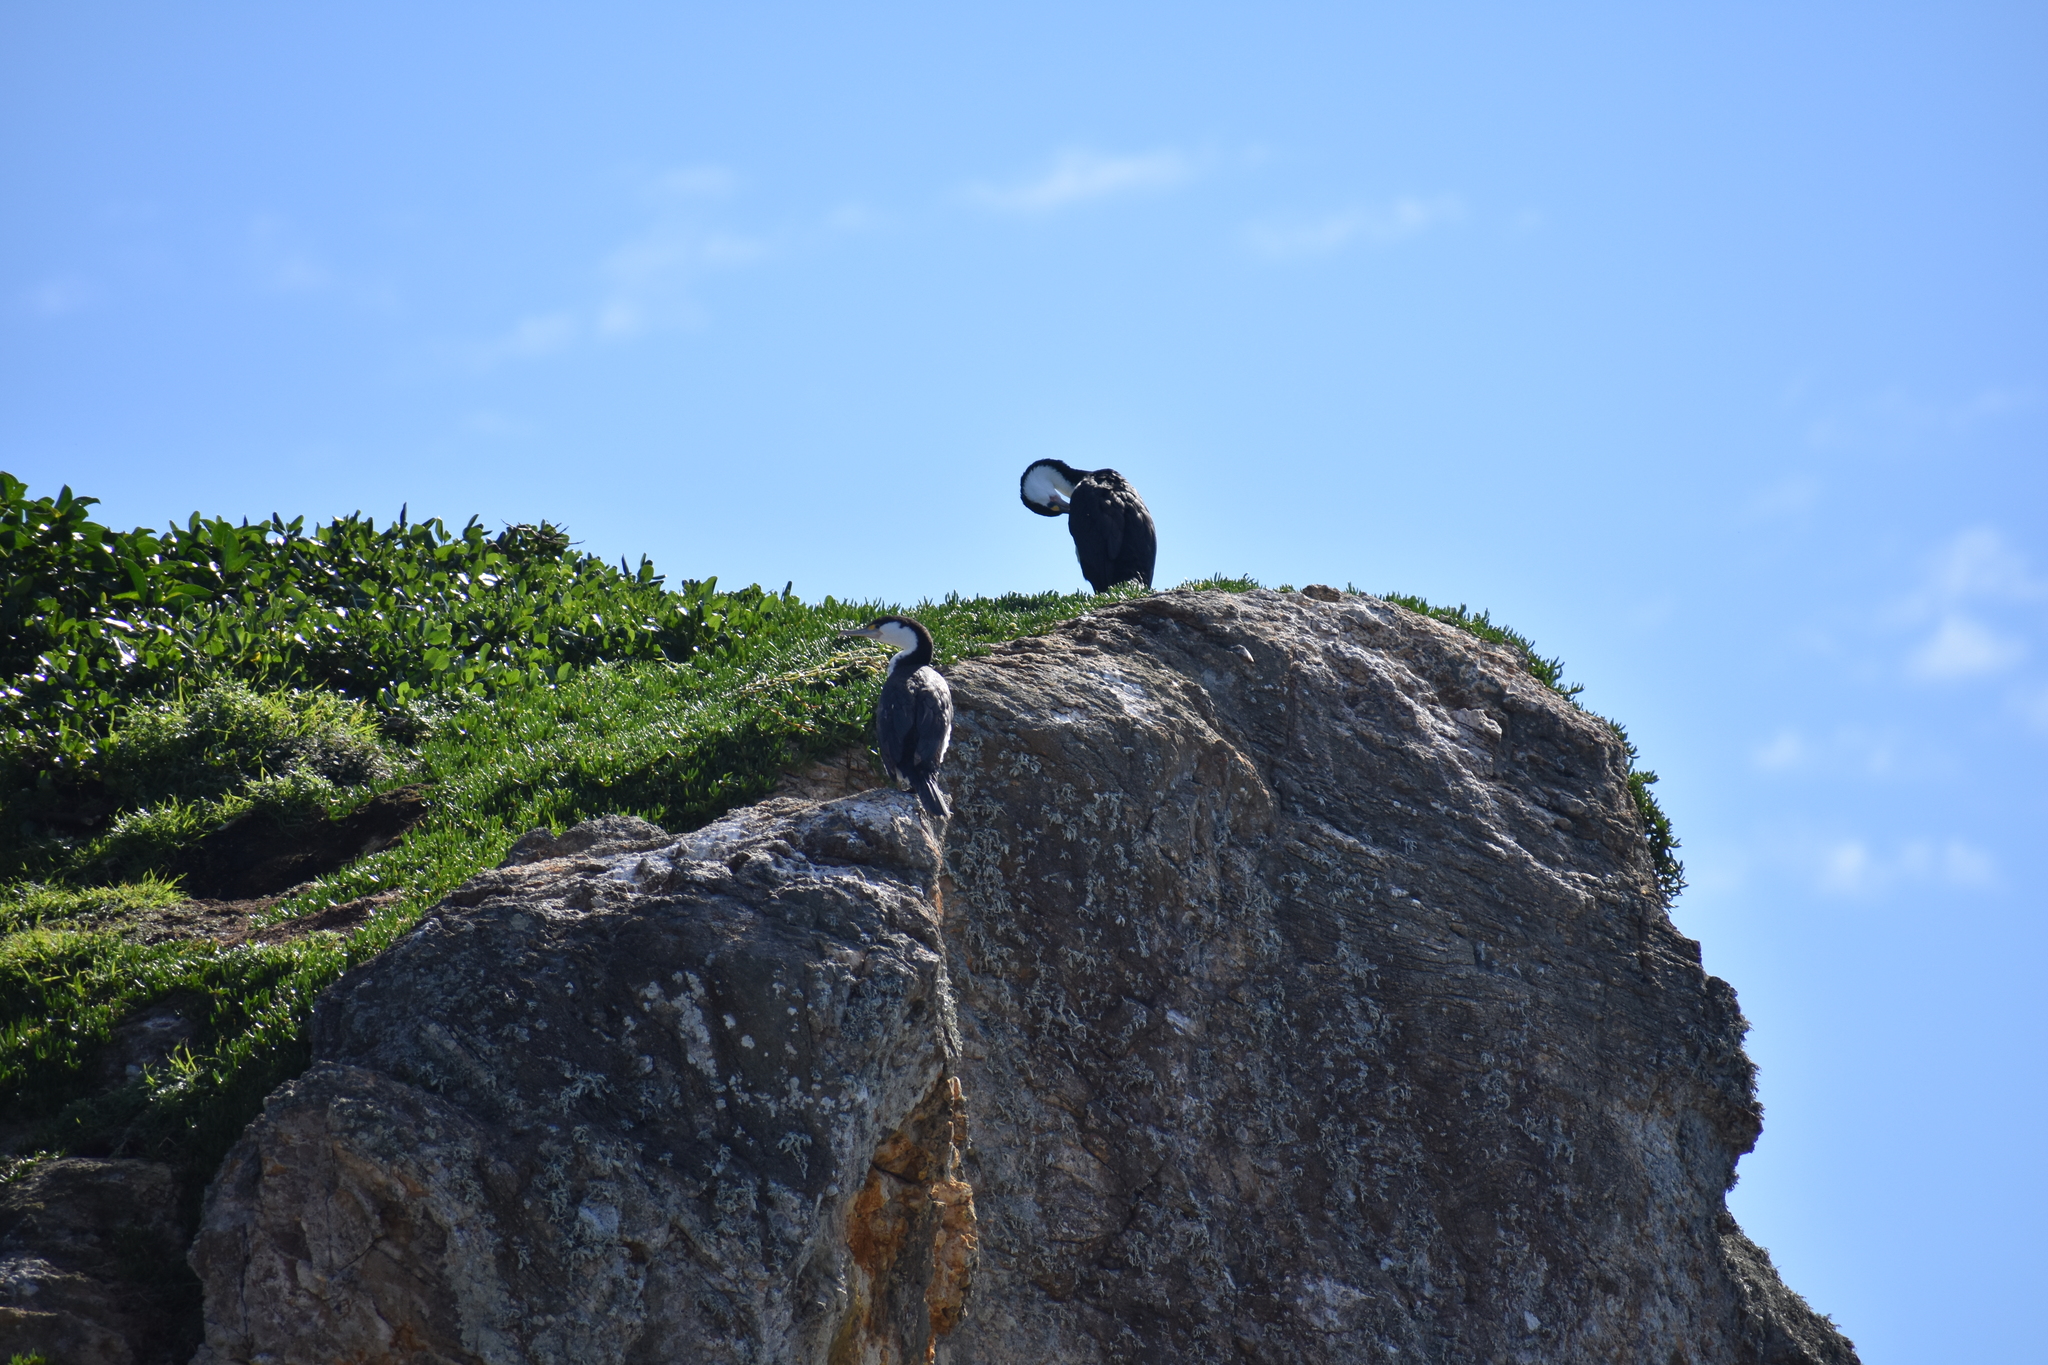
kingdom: Animalia
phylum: Chordata
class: Aves
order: Suliformes
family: Phalacrocoracidae
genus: Phalacrocorax
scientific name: Phalacrocorax varius
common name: Pied cormorant
